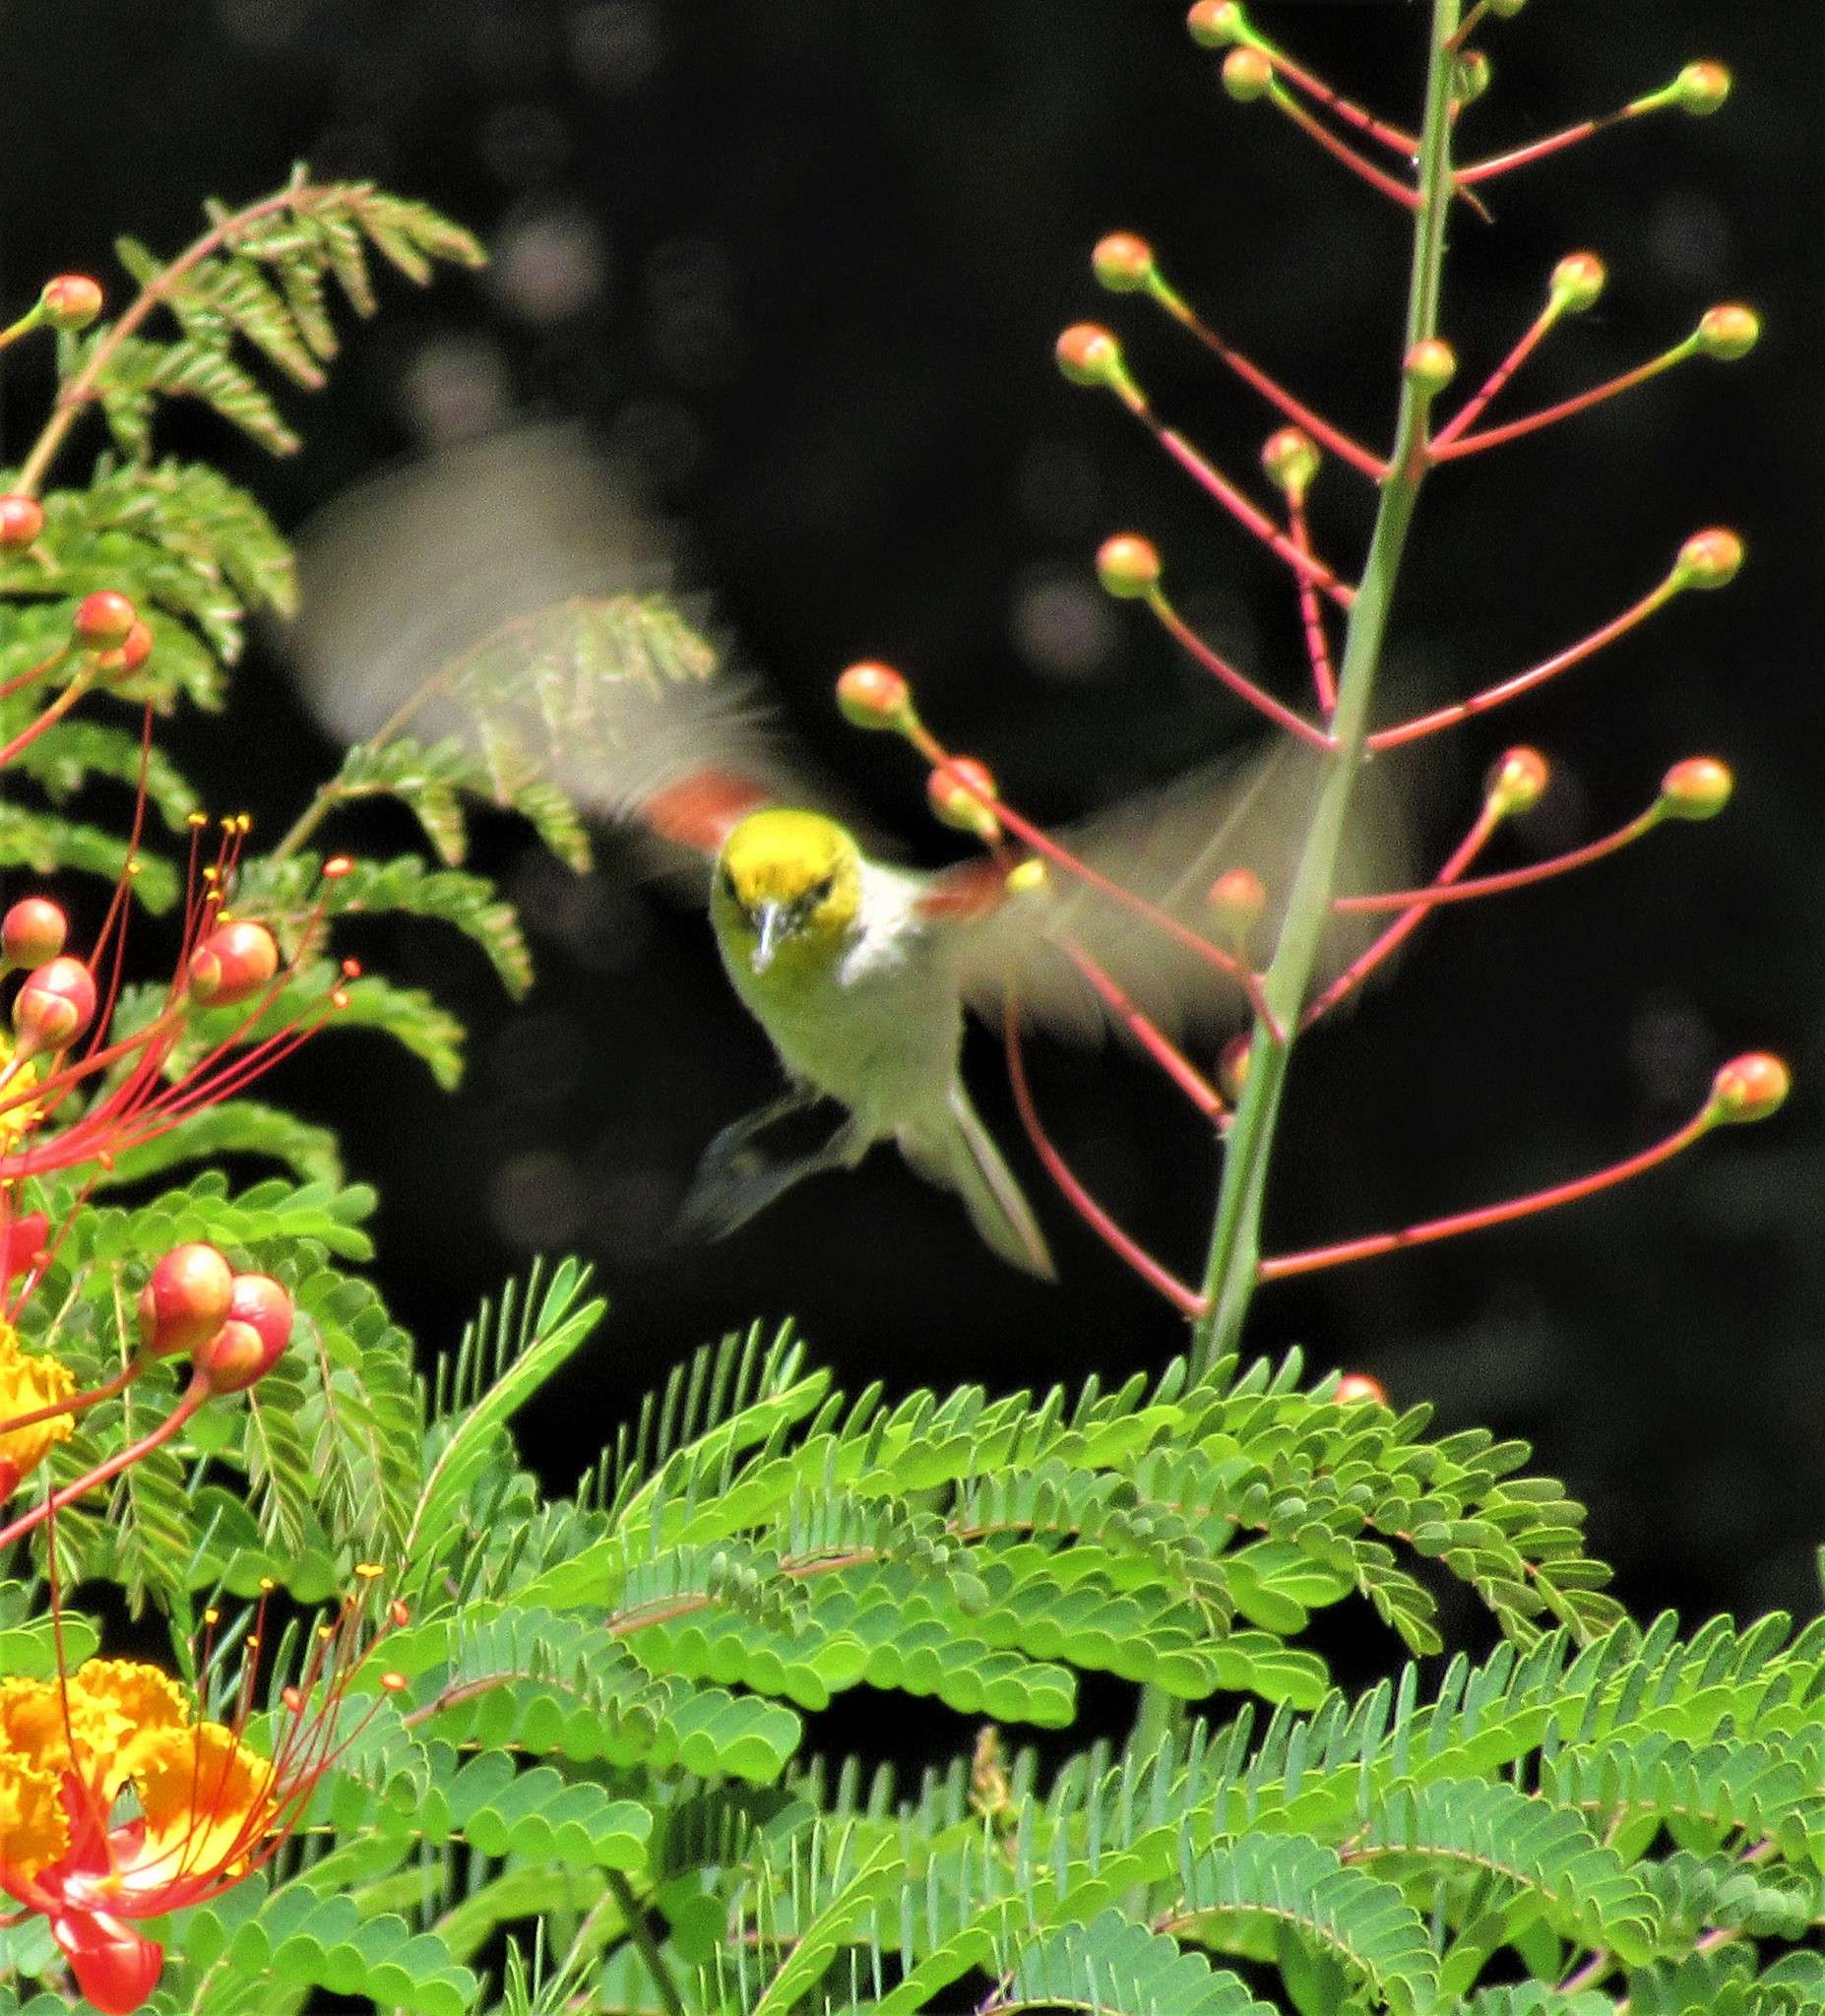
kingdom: Animalia
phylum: Chordata
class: Aves
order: Passeriformes
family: Remizidae
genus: Auriparus
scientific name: Auriparus flaviceps
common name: Verdin
